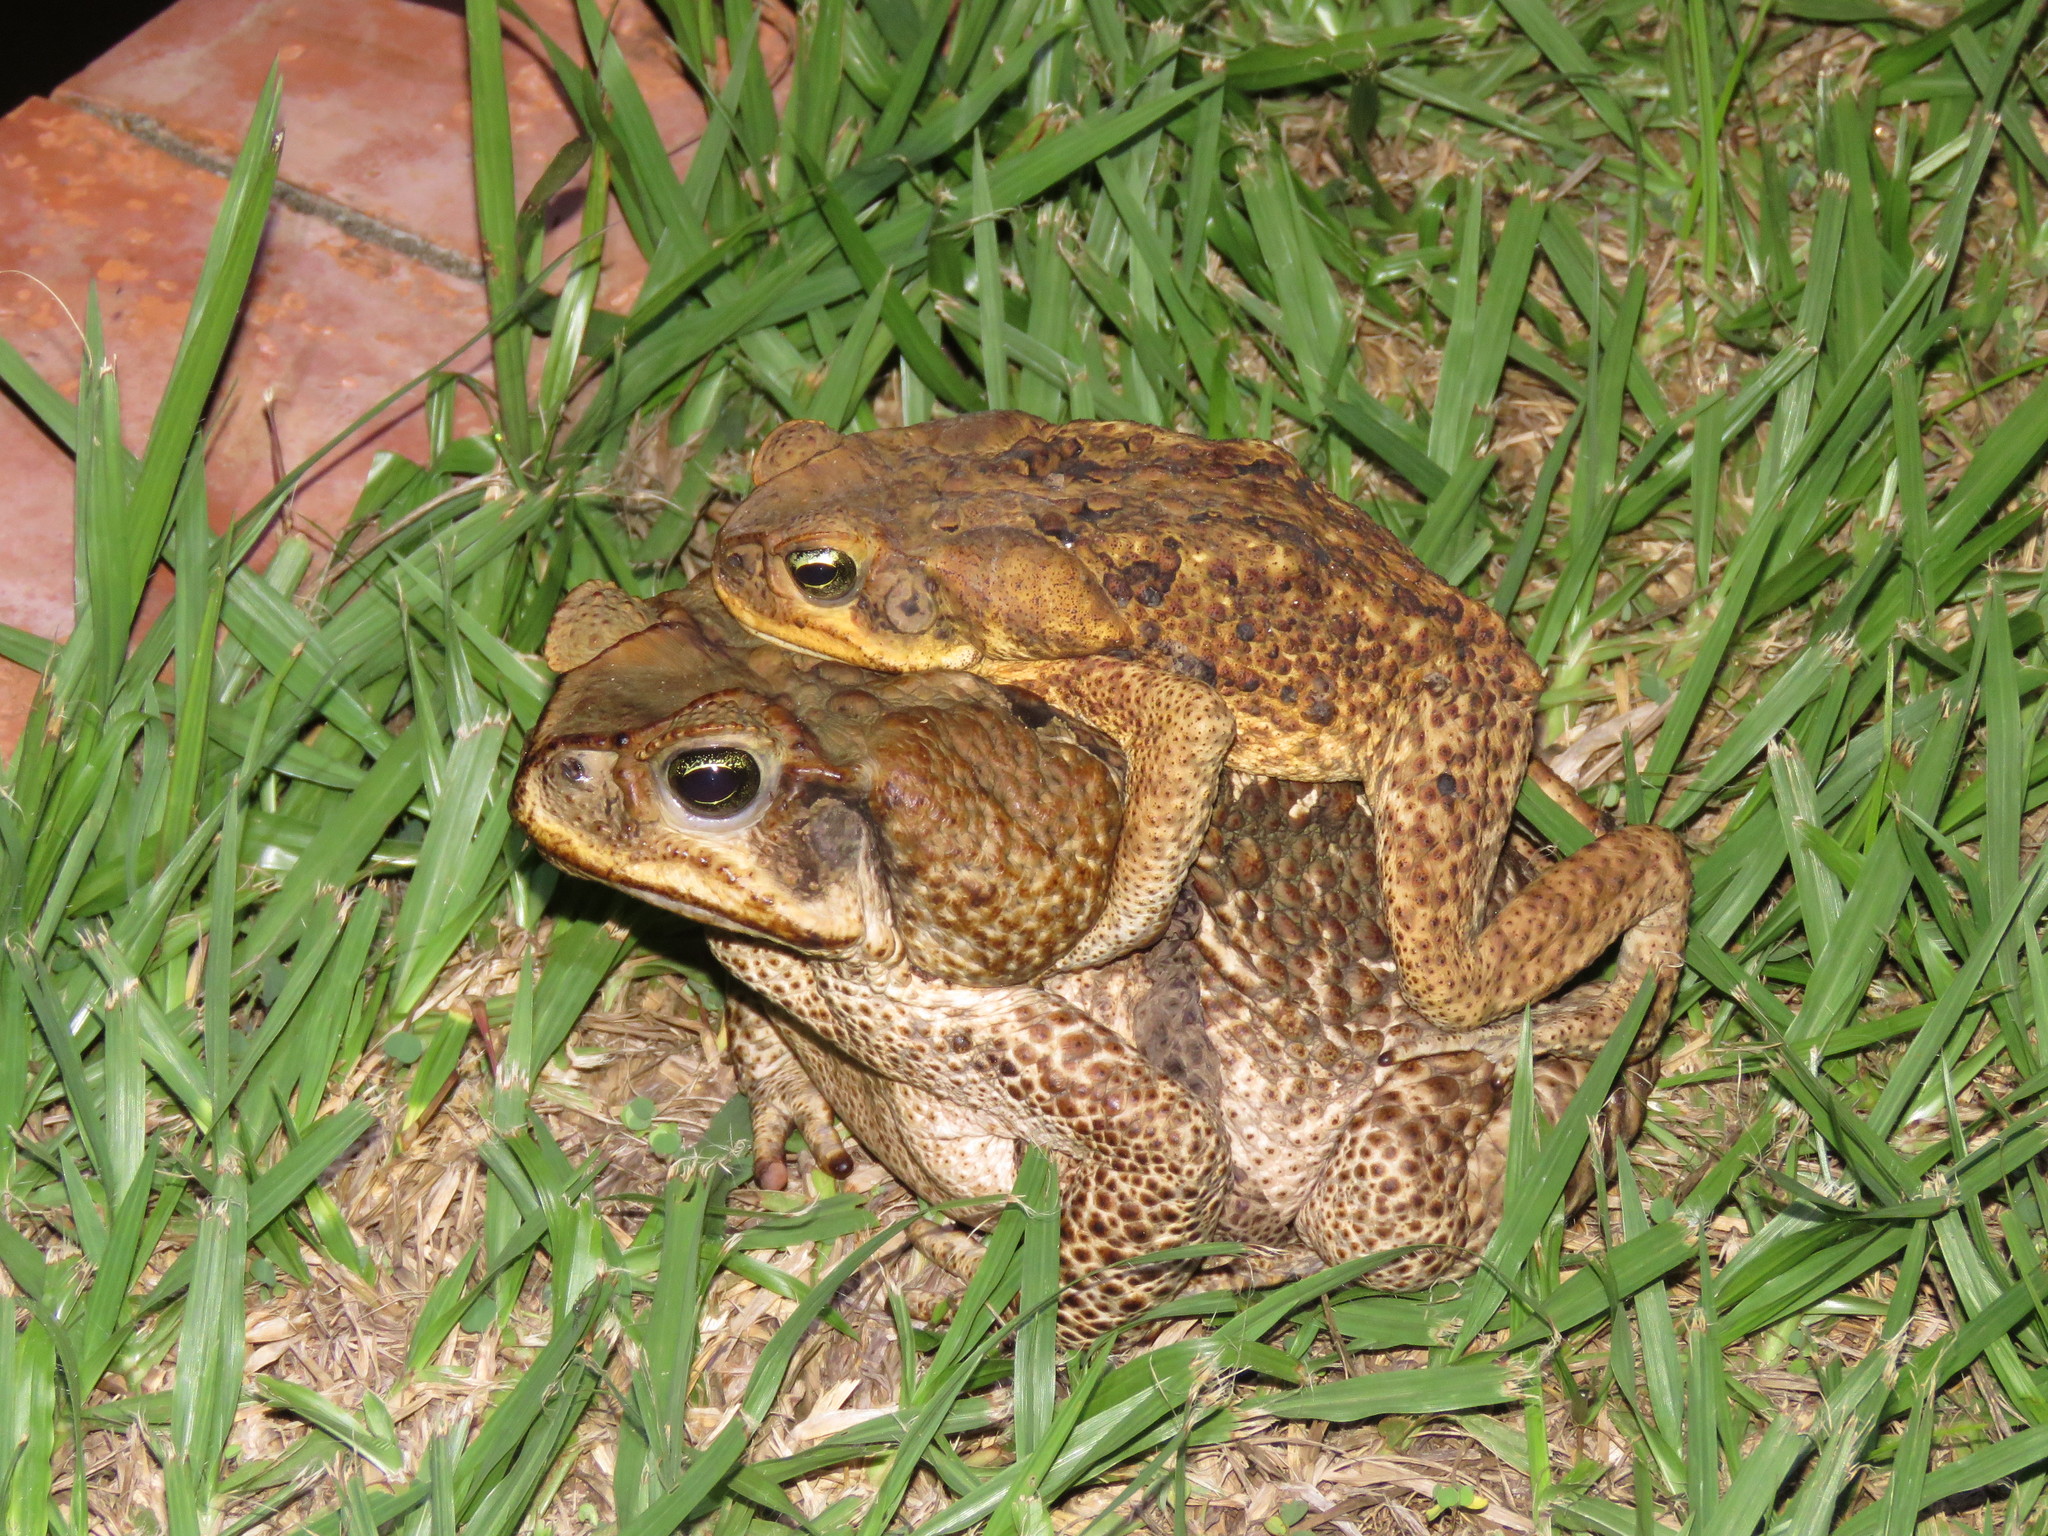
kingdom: Animalia
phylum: Chordata
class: Amphibia
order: Anura
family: Bufonidae
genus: Rhinella
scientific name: Rhinella marina
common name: Cane toad
